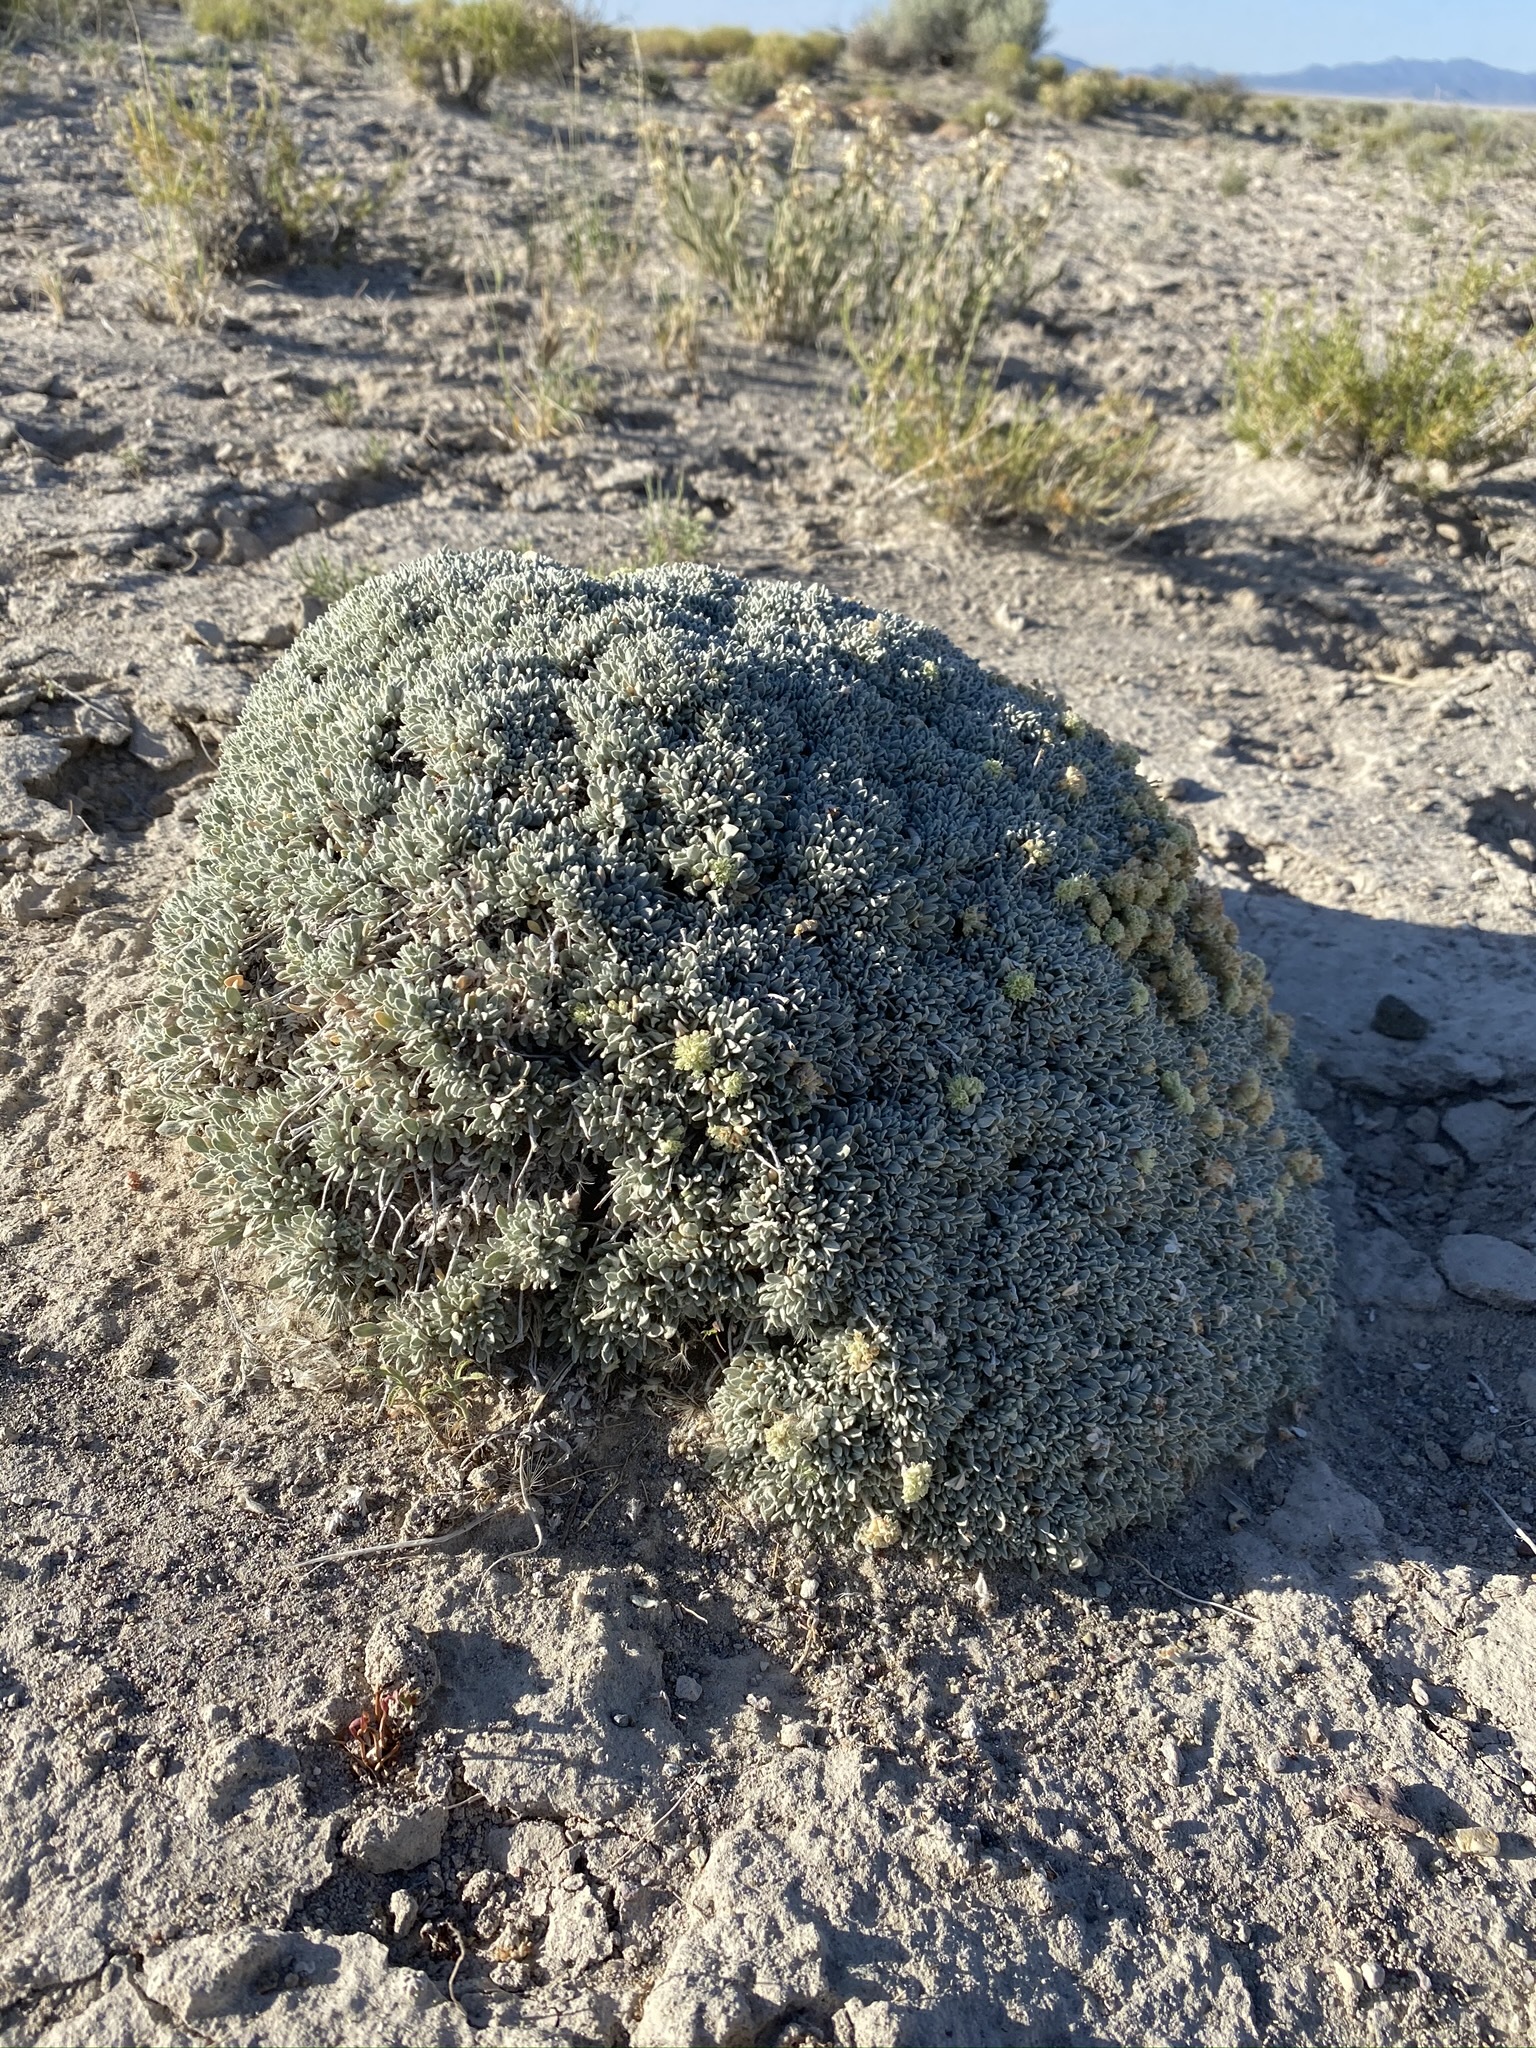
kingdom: Plantae
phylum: Tracheophyta
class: Magnoliopsida
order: Caryophyllales
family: Polygonaceae
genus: Eriogonum
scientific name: Eriogonum shockleyi
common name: Shockley's wild buckwheat
